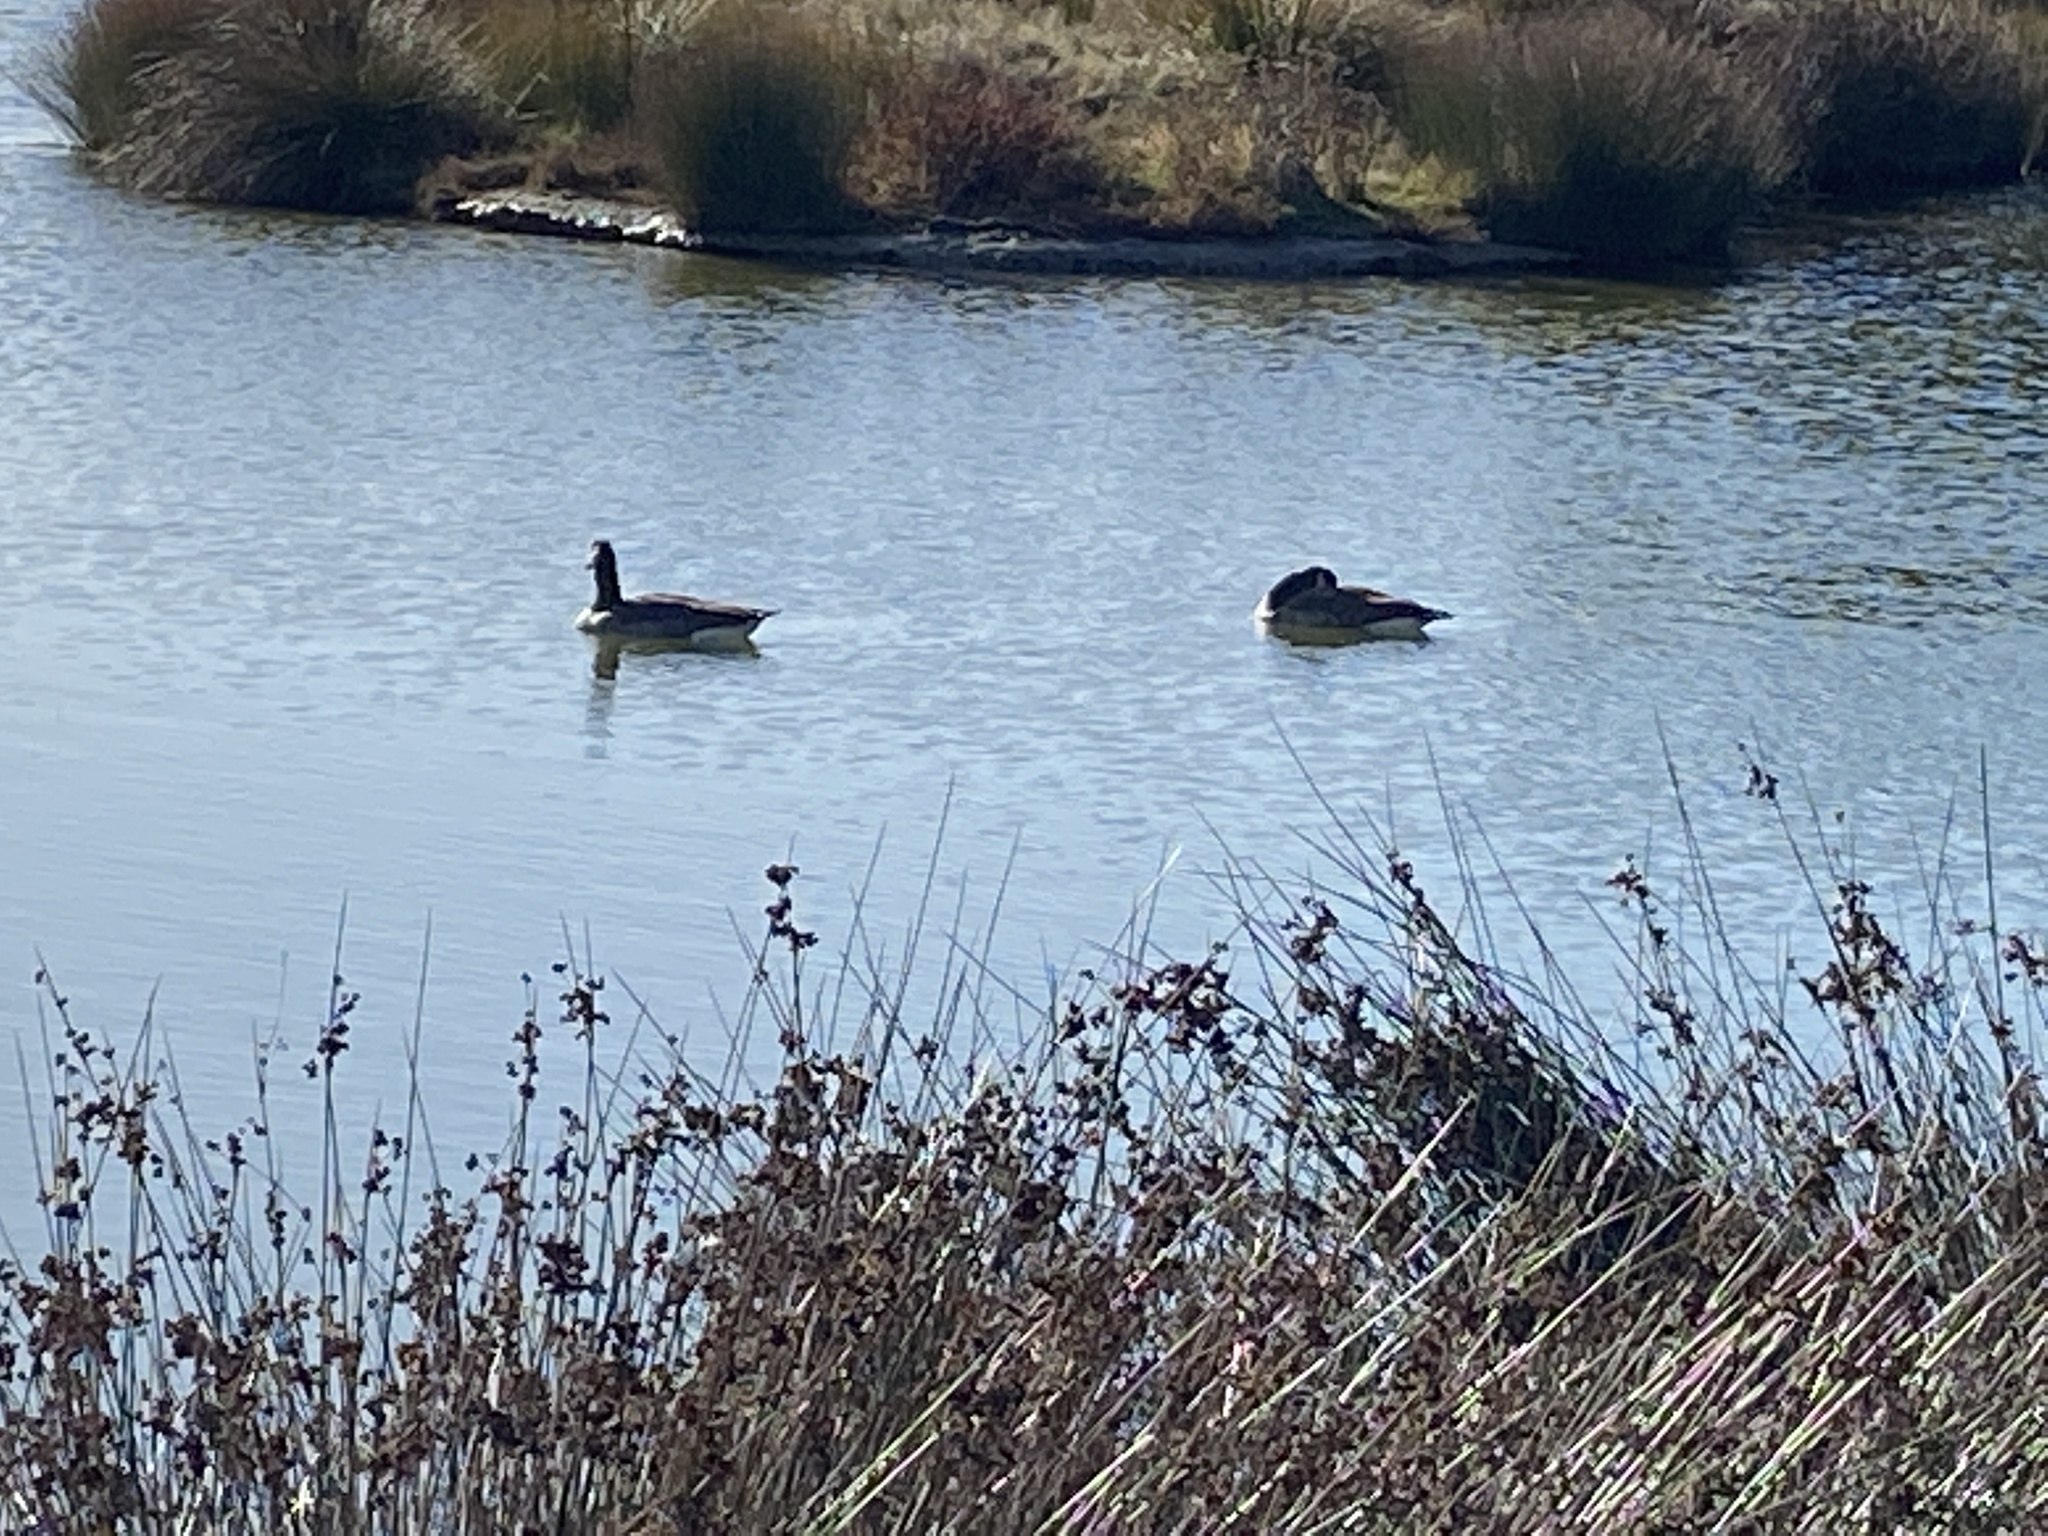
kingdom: Animalia
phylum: Chordata
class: Aves
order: Anseriformes
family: Anatidae
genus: Branta
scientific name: Branta canadensis
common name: Canada goose
